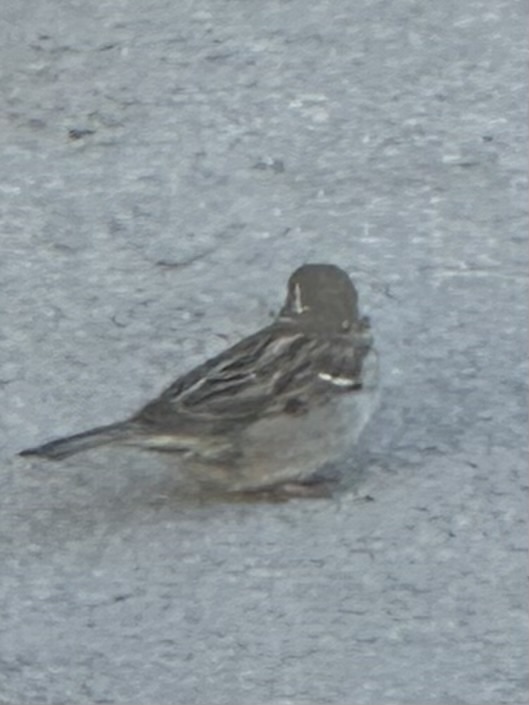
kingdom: Animalia
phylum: Chordata
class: Aves
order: Passeriformes
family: Passeridae
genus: Passer
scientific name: Passer domesticus
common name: House sparrow
